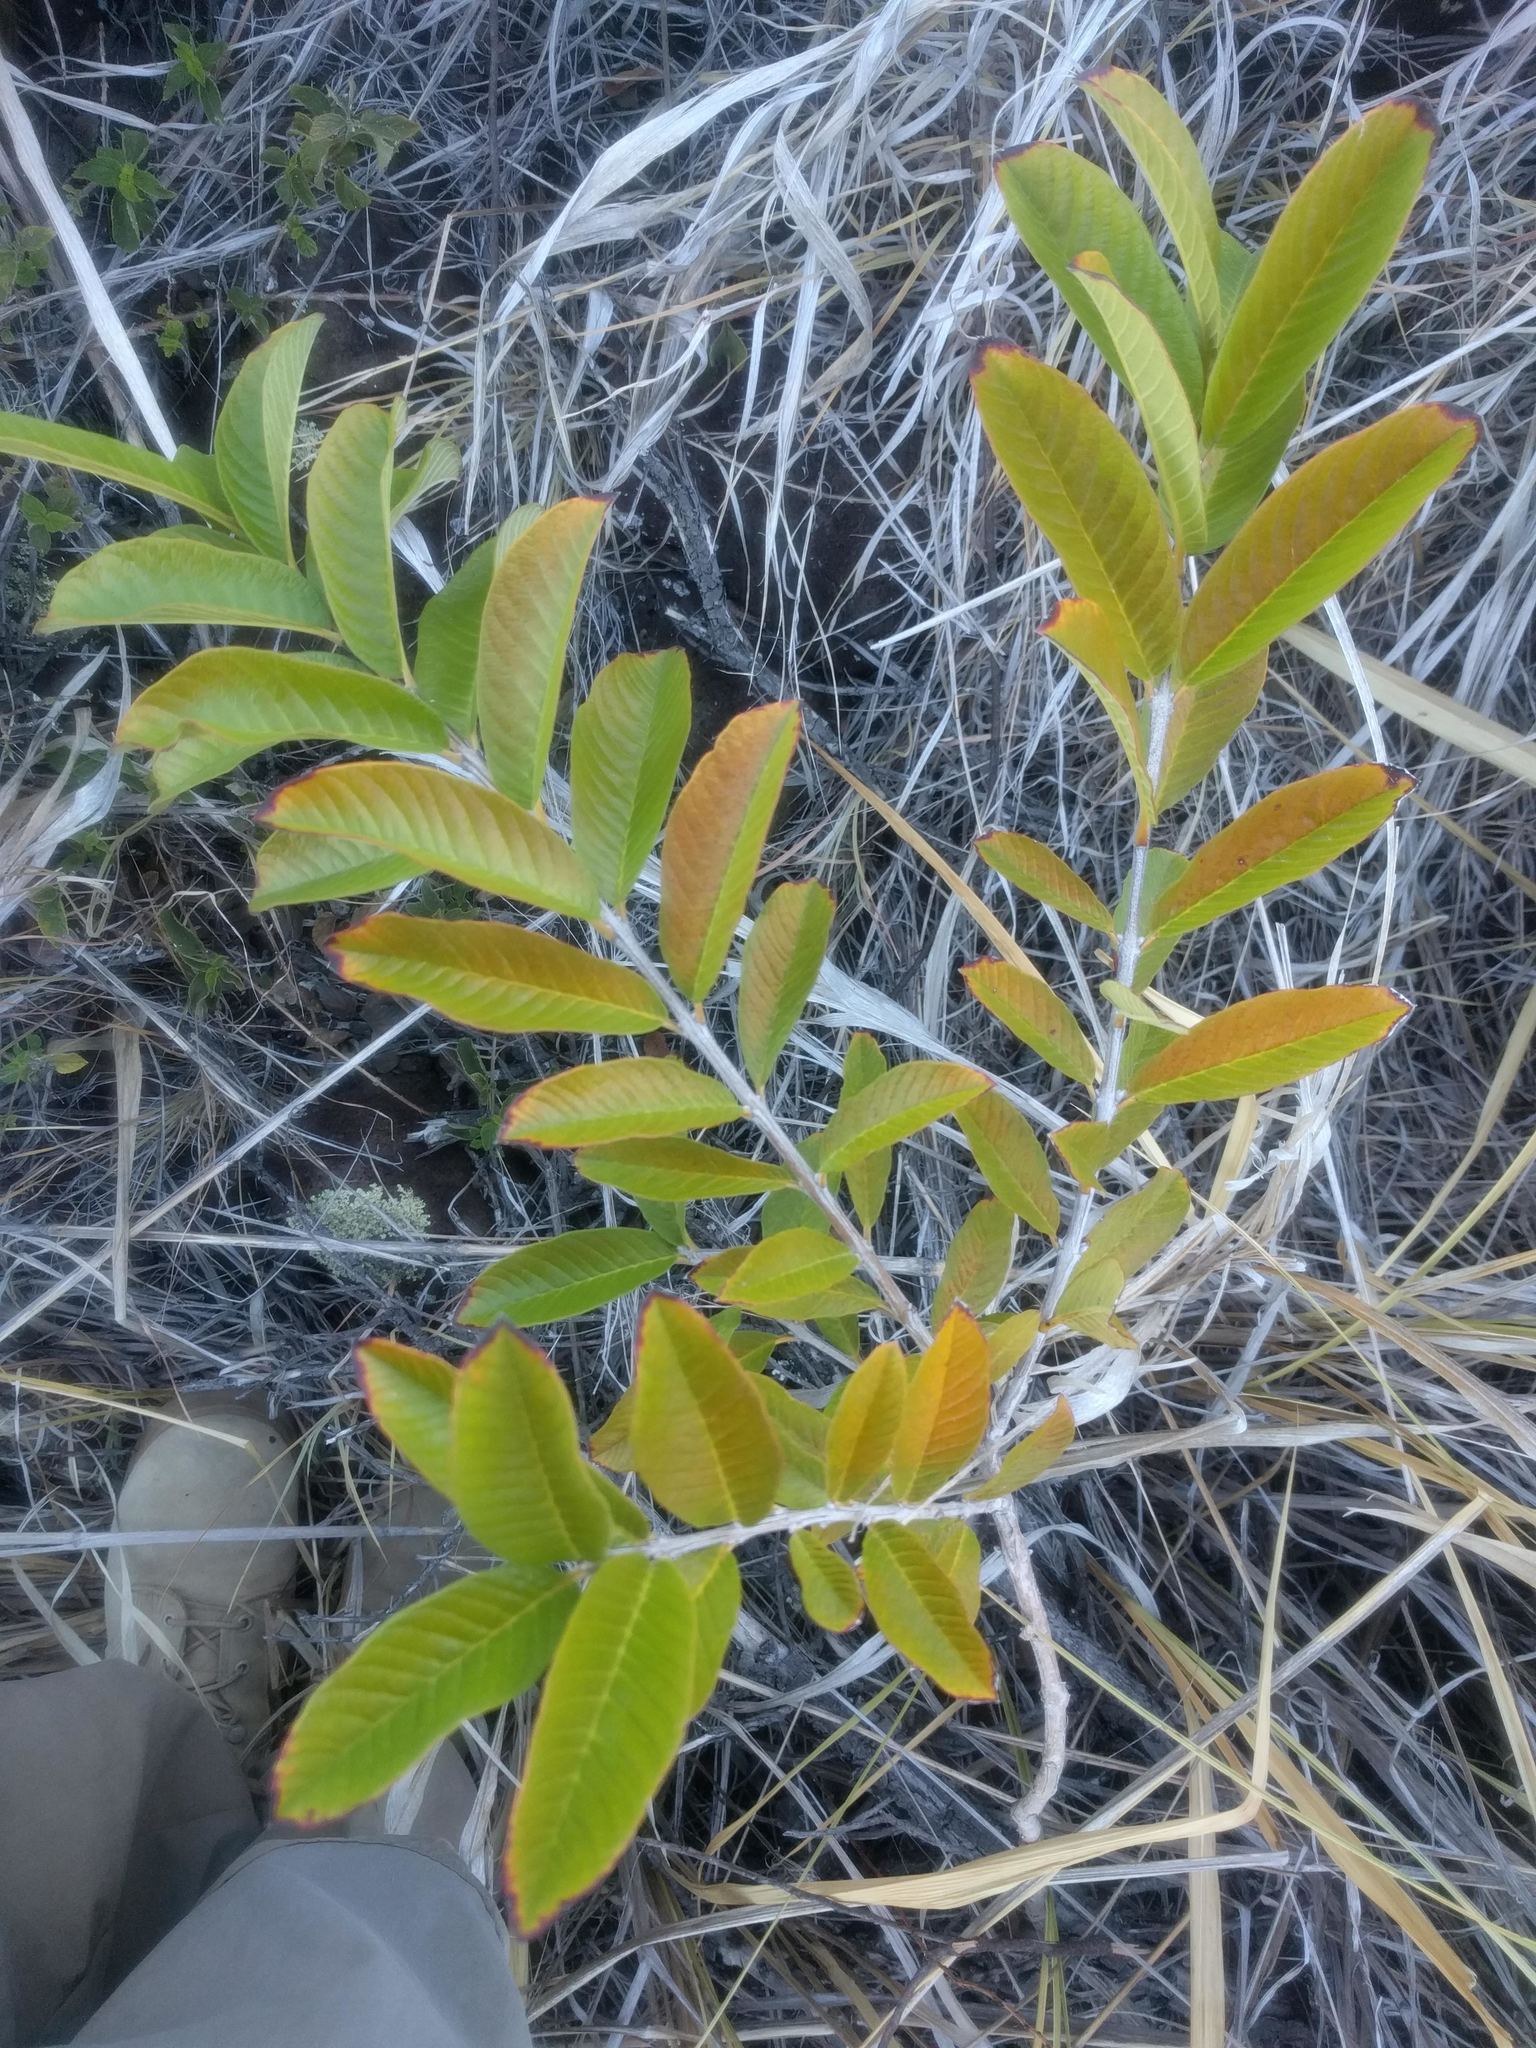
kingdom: Plantae
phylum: Tracheophyta
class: Magnoliopsida
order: Myrtales
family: Myrtaceae
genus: Psidium
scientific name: Psidium guajava
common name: Guava
